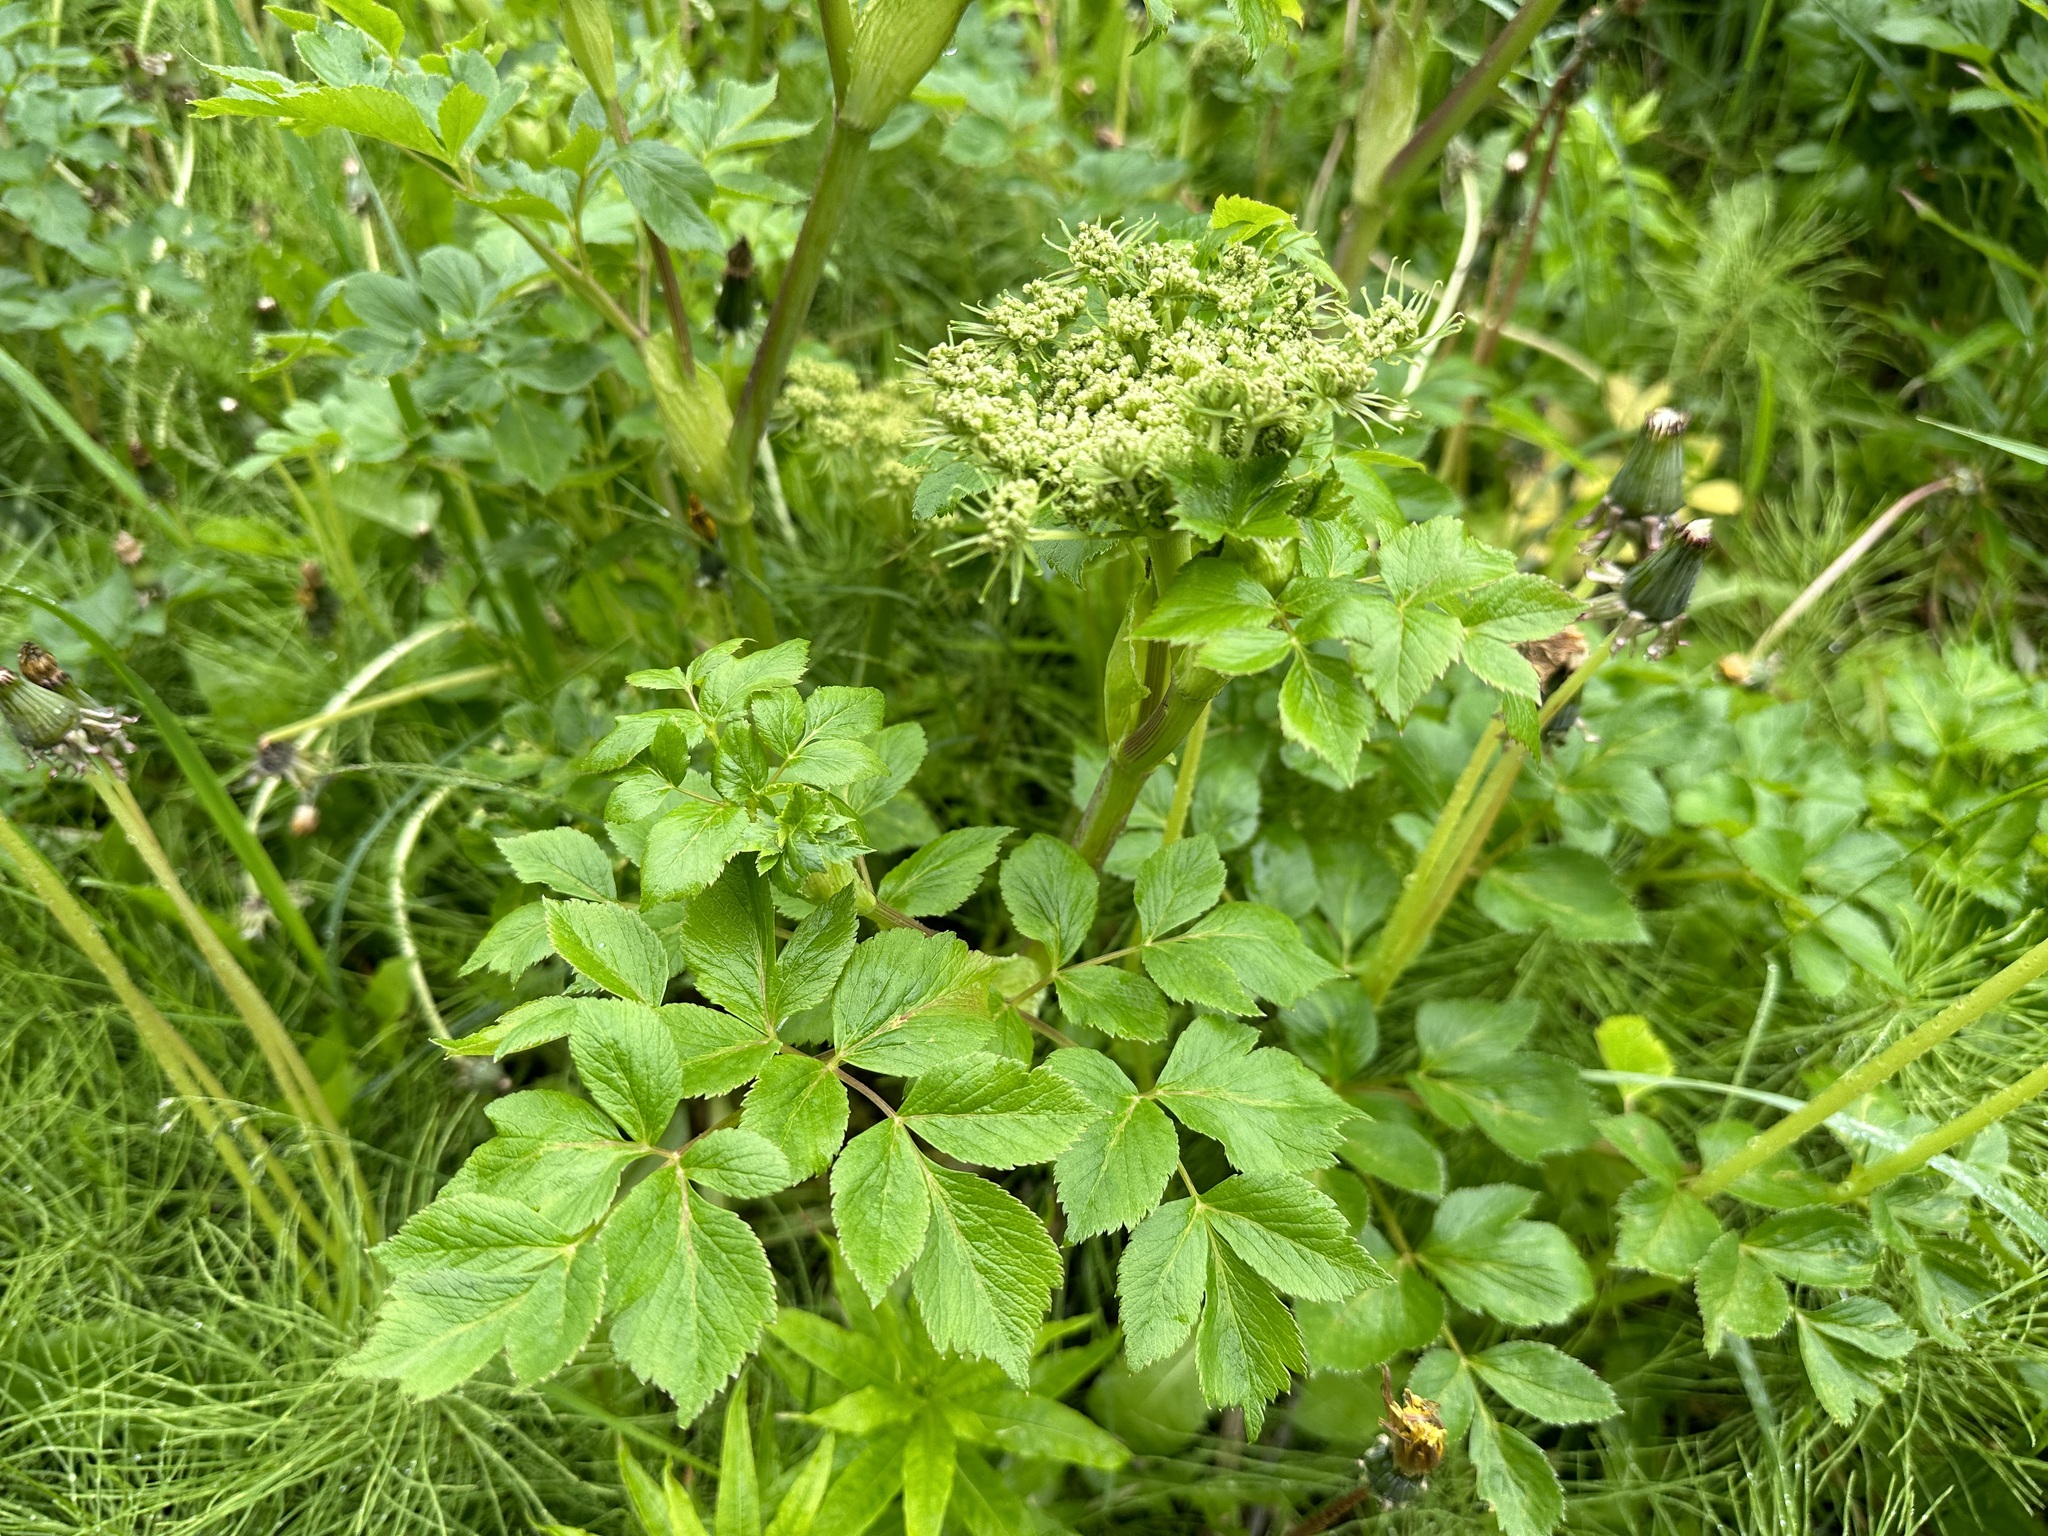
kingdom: Plantae
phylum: Tracheophyta
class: Magnoliopsida
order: Apiales
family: Apiaceae
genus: Angelica
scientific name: Angelica lucida
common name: Seabeach angelica
